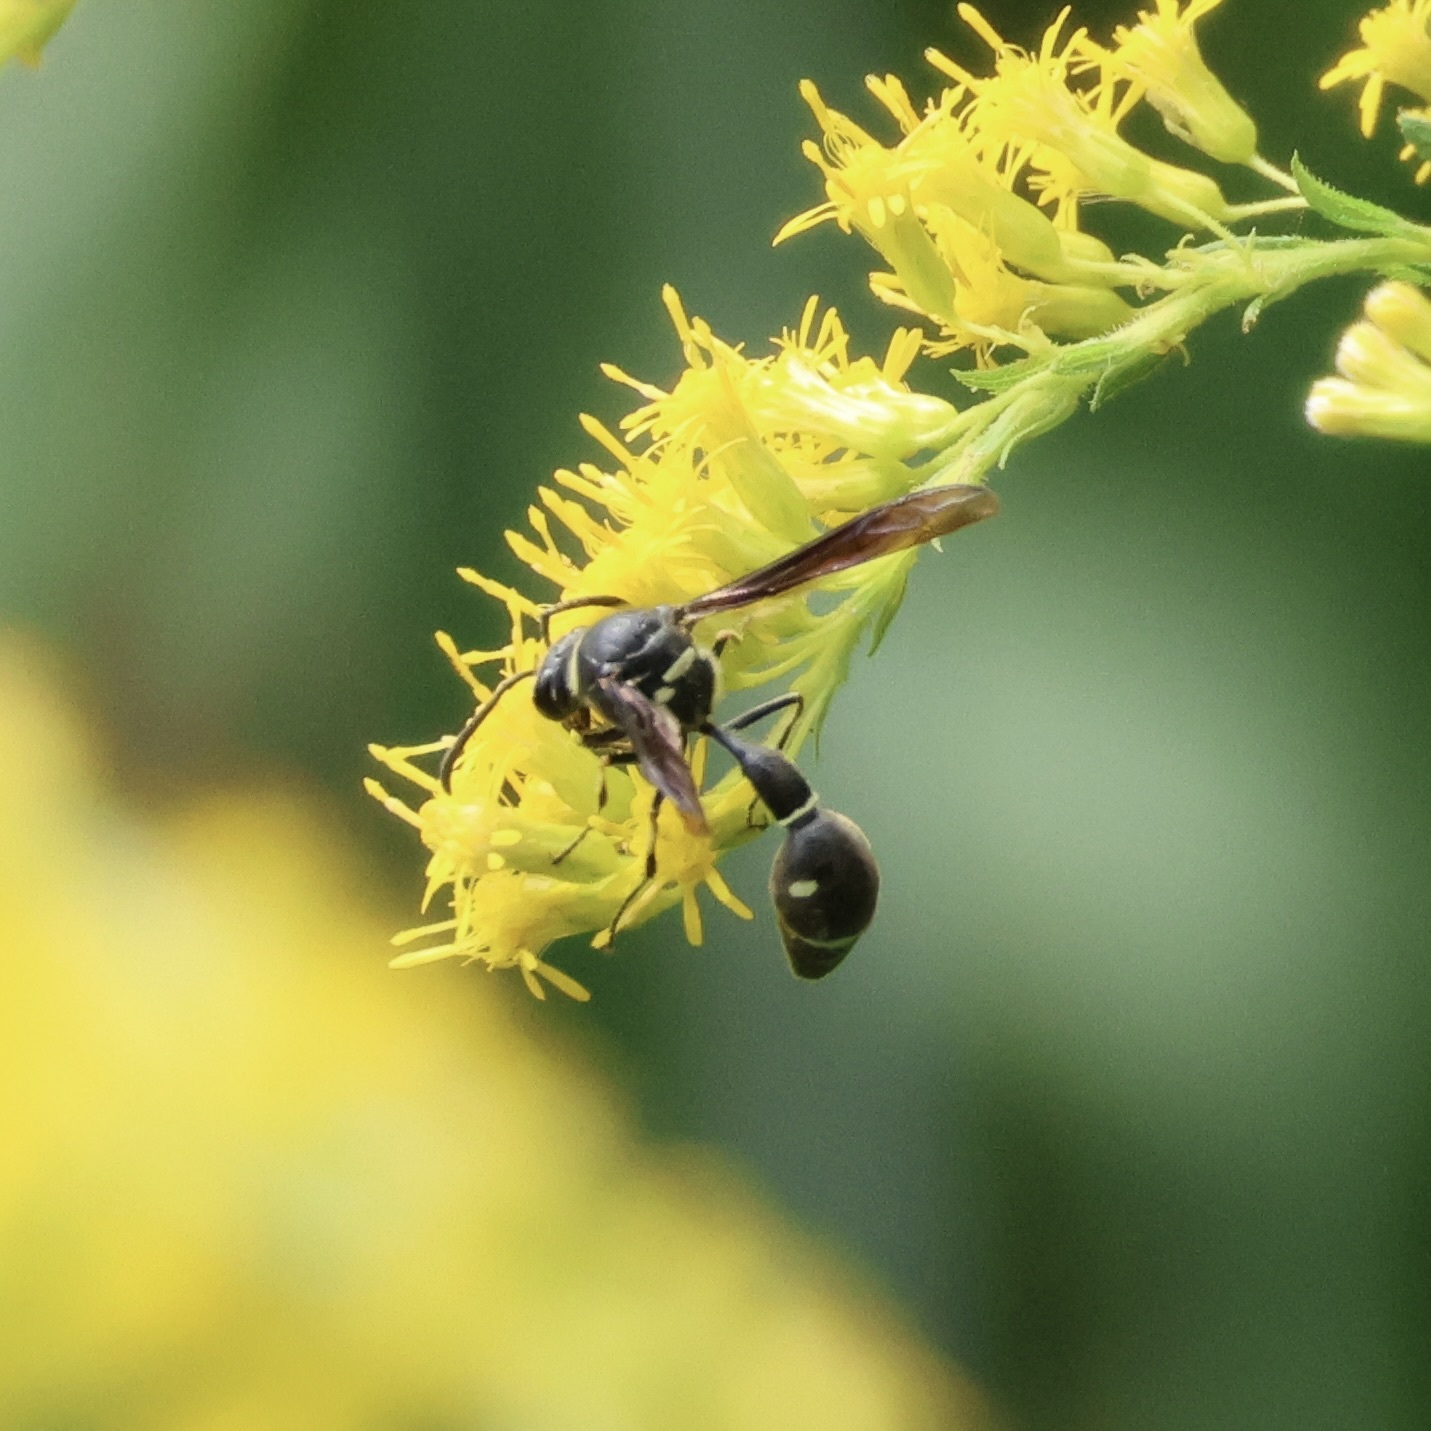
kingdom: Animalia
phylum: Arthropoda
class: Insecta
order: Hymenoptera
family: Vespidae
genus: Eumenes
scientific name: Eumenes fraternus
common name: Fraternal potter wasp
